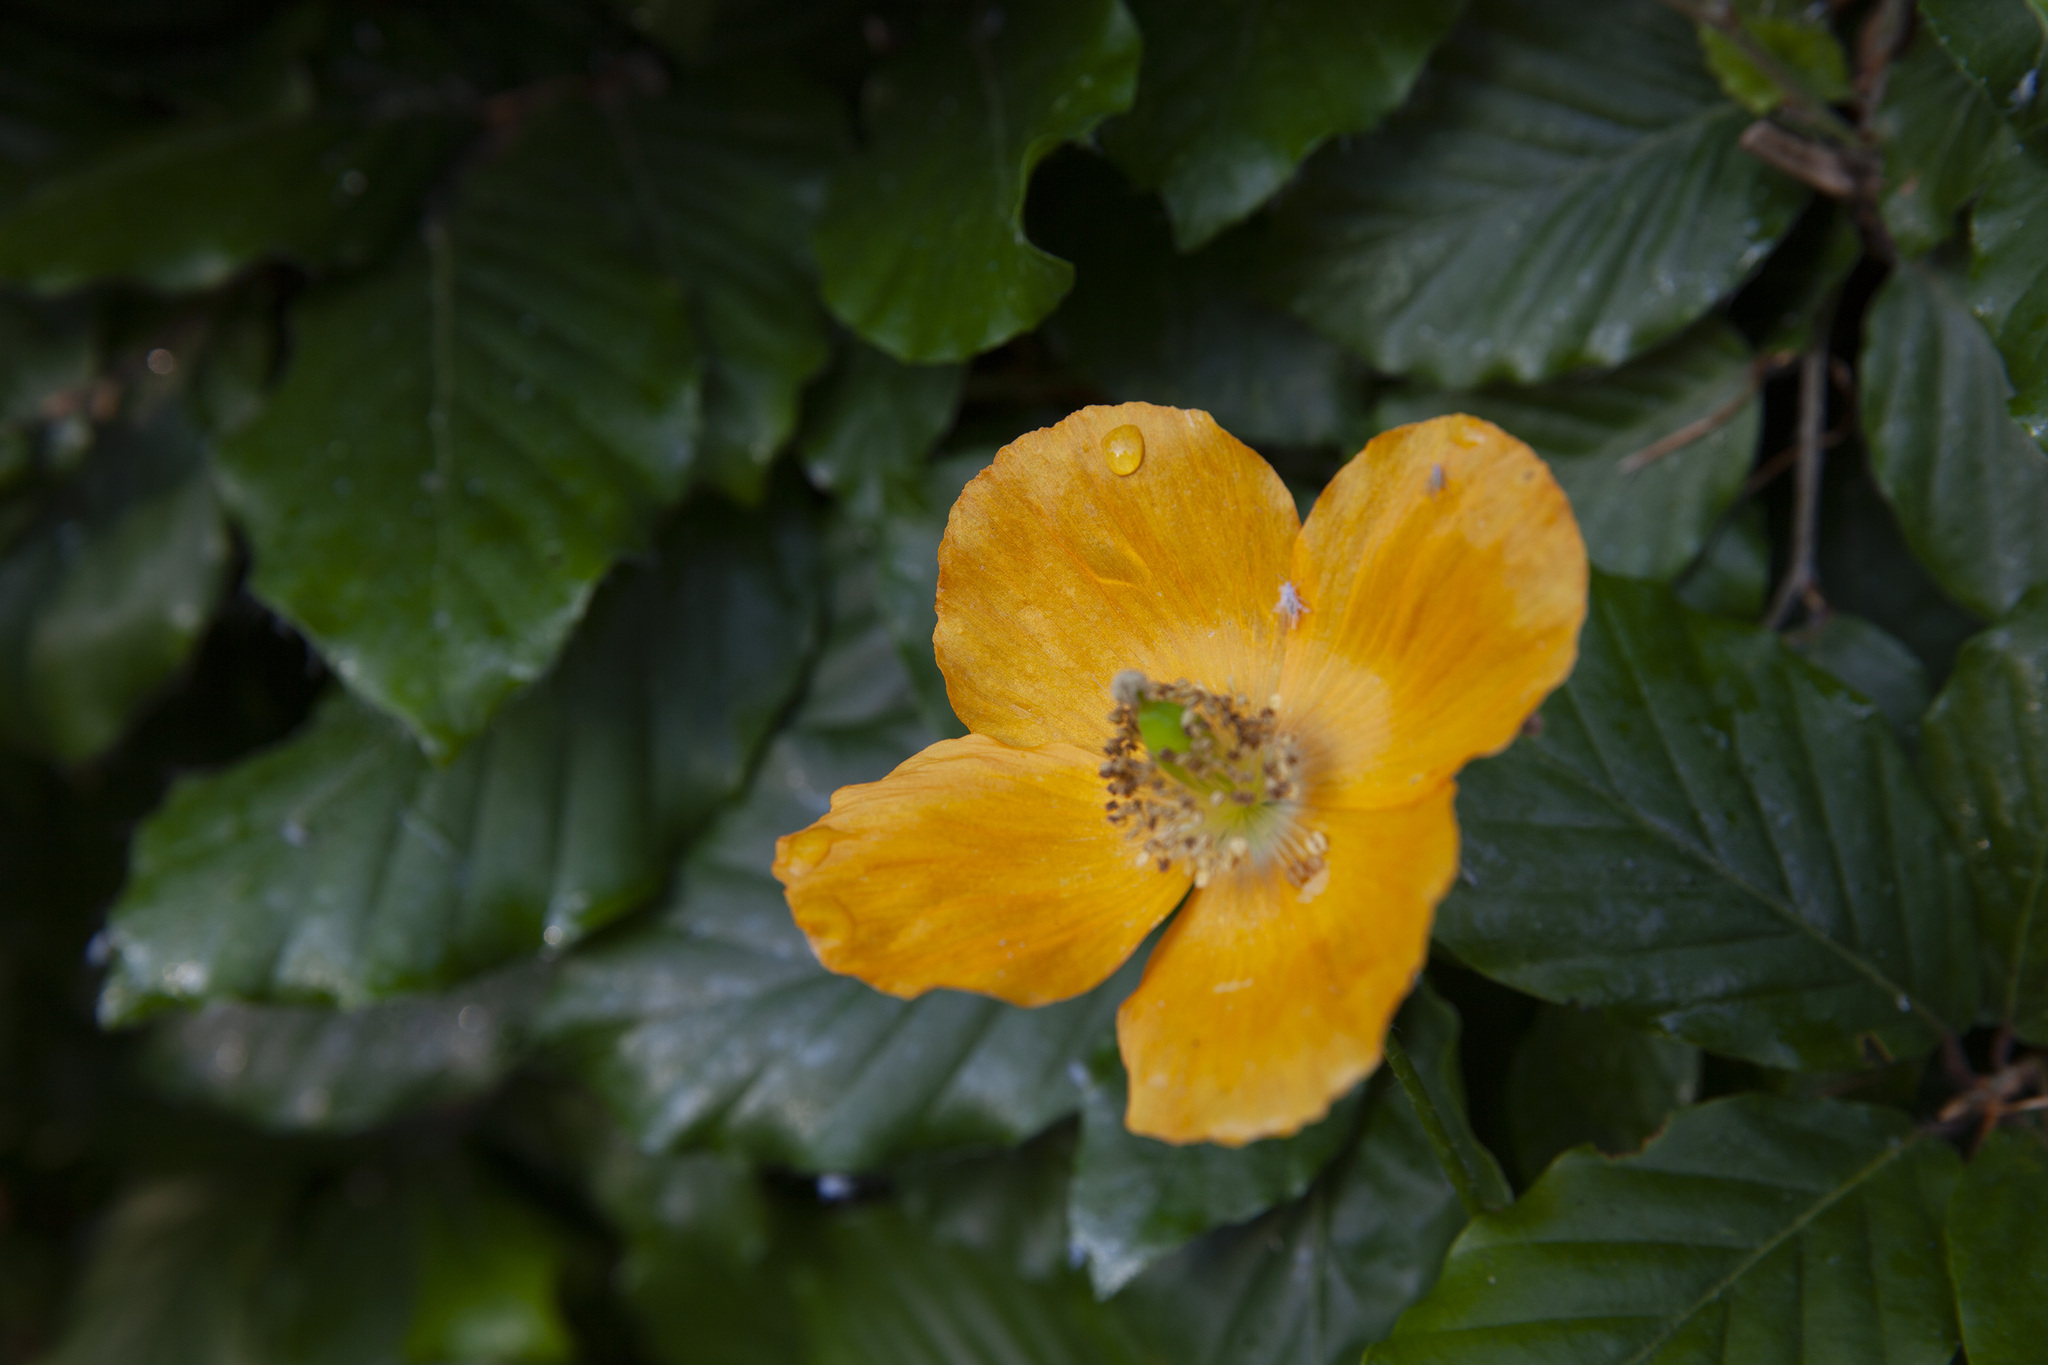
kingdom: Plantae
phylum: Tracheophyta
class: Magnoliopsida
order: Ranunculales
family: Papaveraceae
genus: Papaver
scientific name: Papaver cambricum
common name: Poppy
